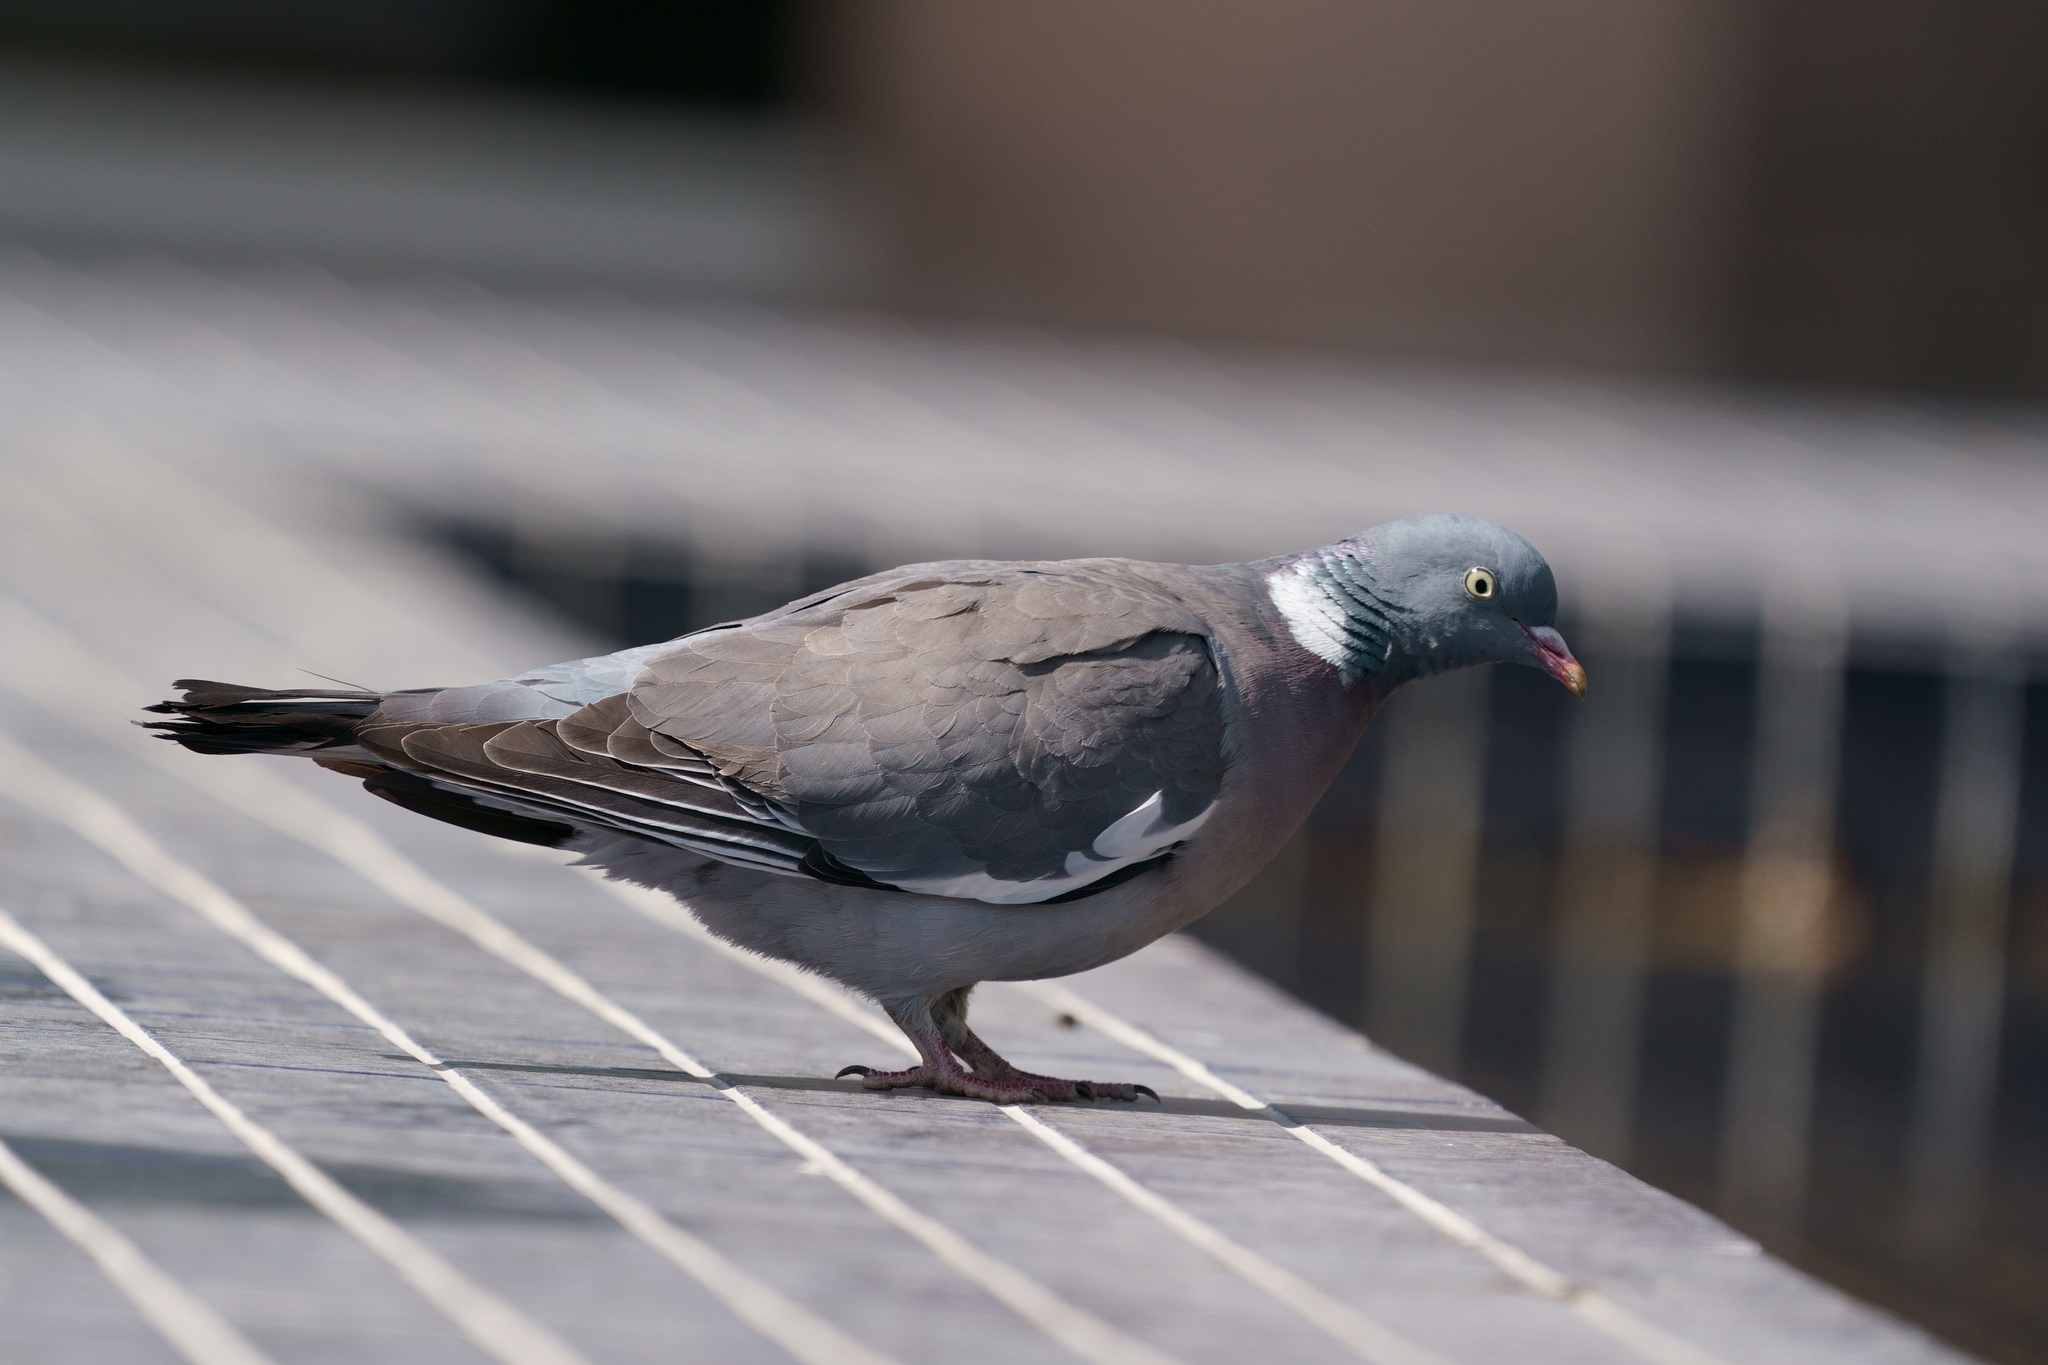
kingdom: Animalia
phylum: Chordata
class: Aves
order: Columbiformes
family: Columbidae
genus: Columba
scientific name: Columba palumbus
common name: Common wood pigeon
